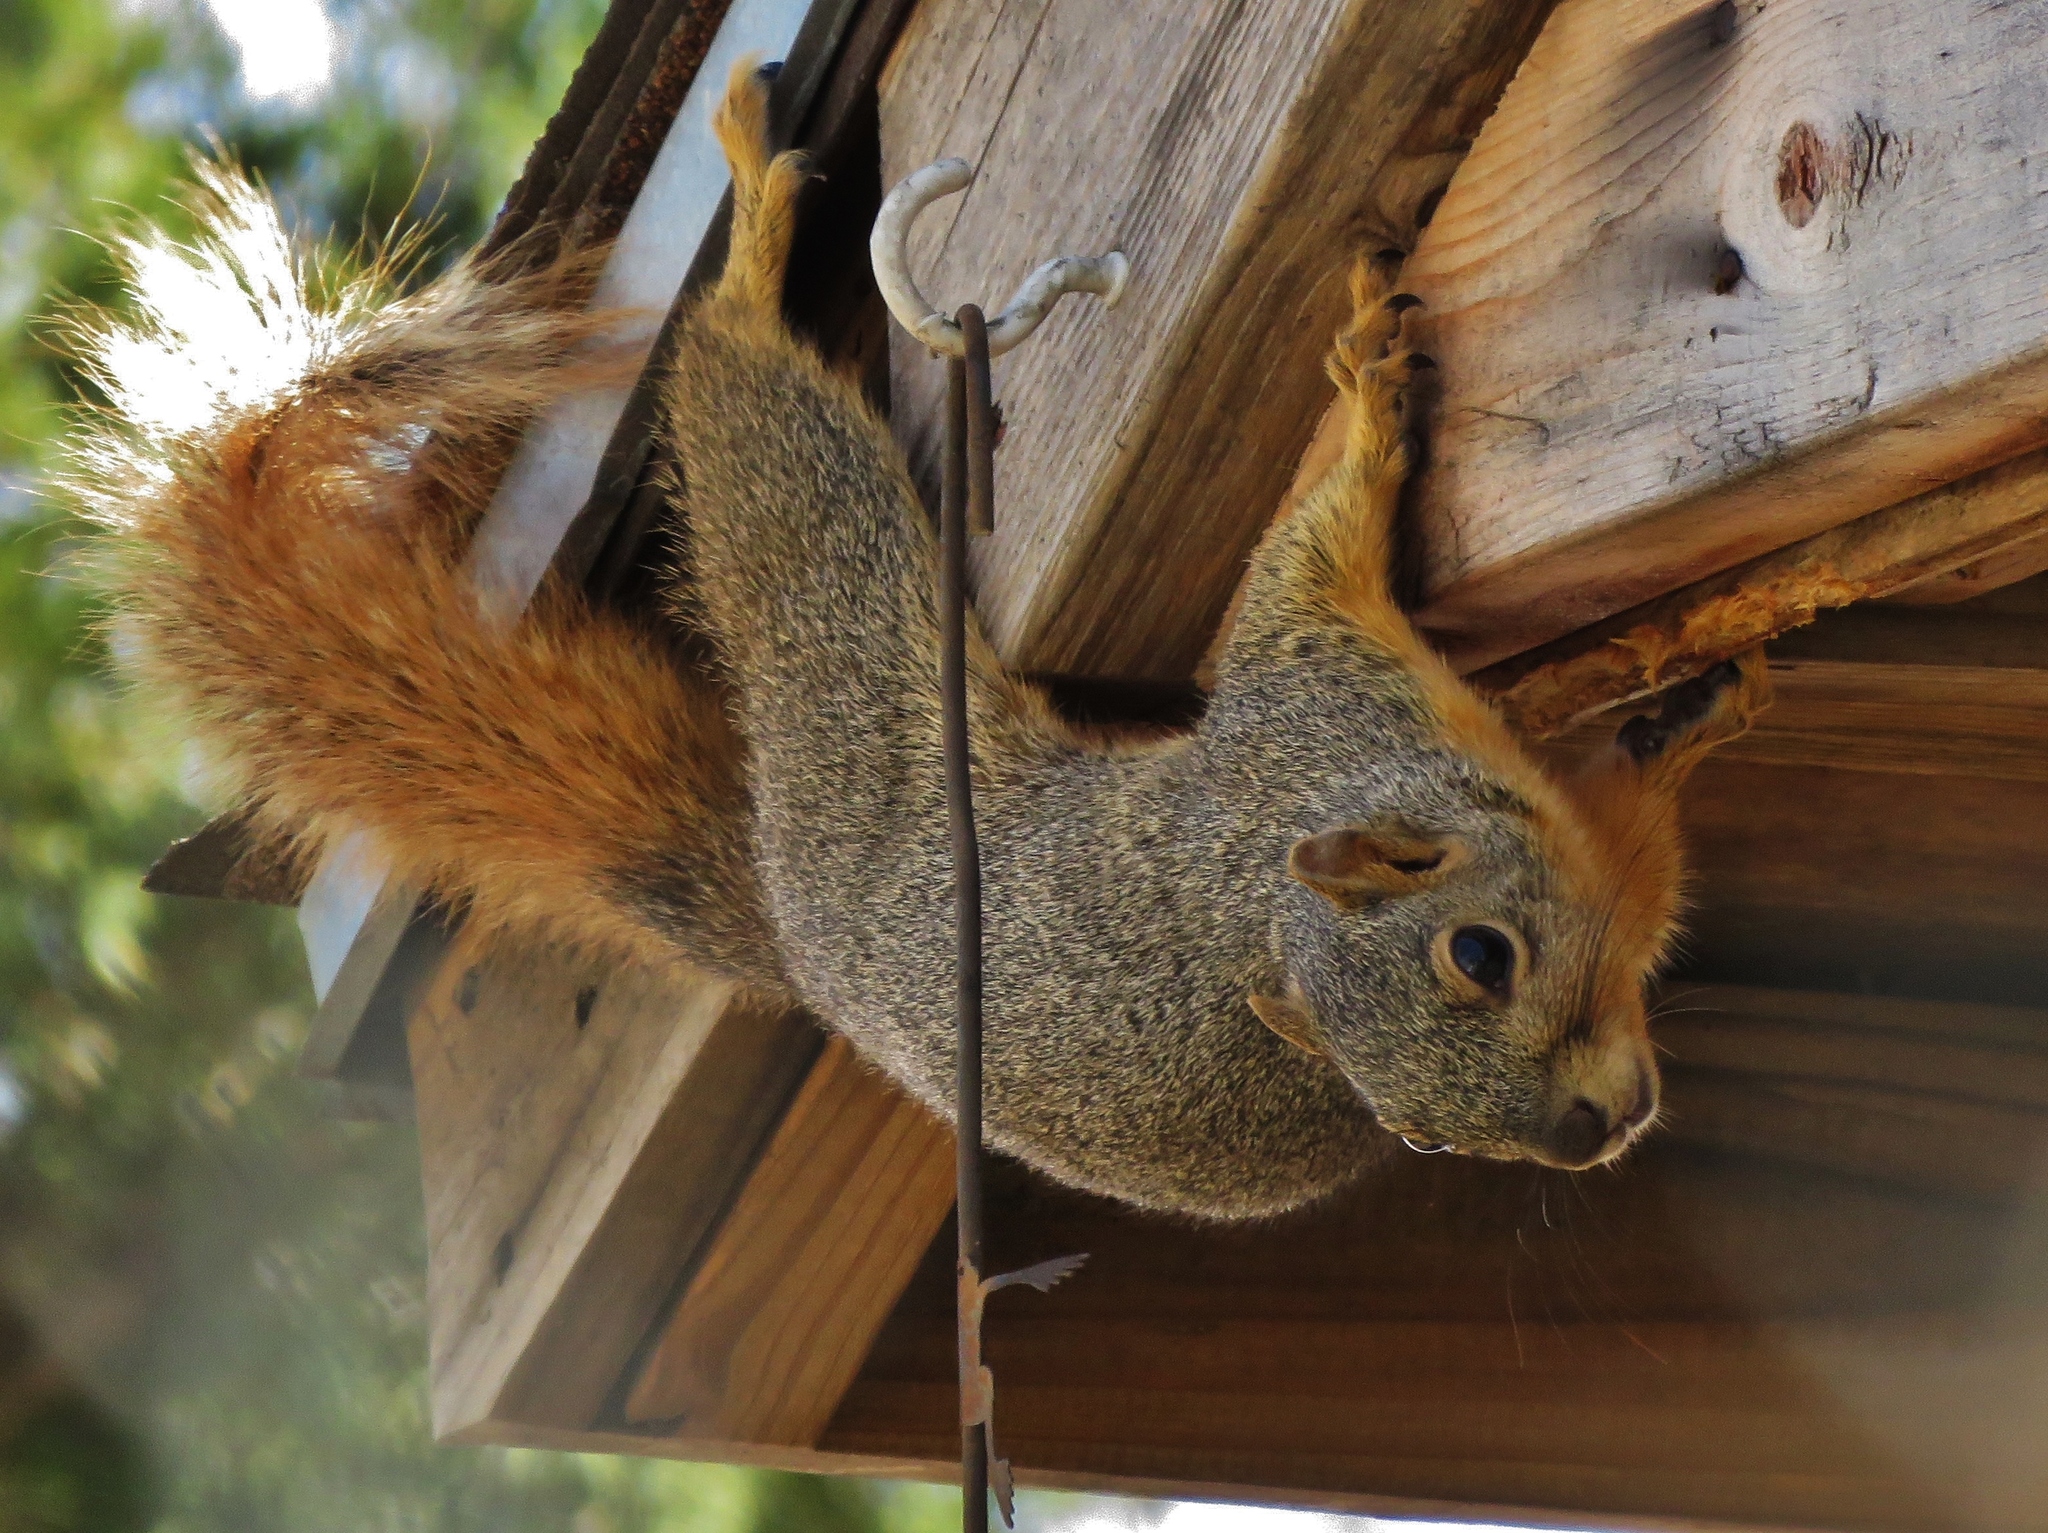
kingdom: Animalia
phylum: Chordata
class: Mammalia
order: Rodentia
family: Sciuridae
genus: Sciurus
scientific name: Sciurus niger
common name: Fox squirrel
